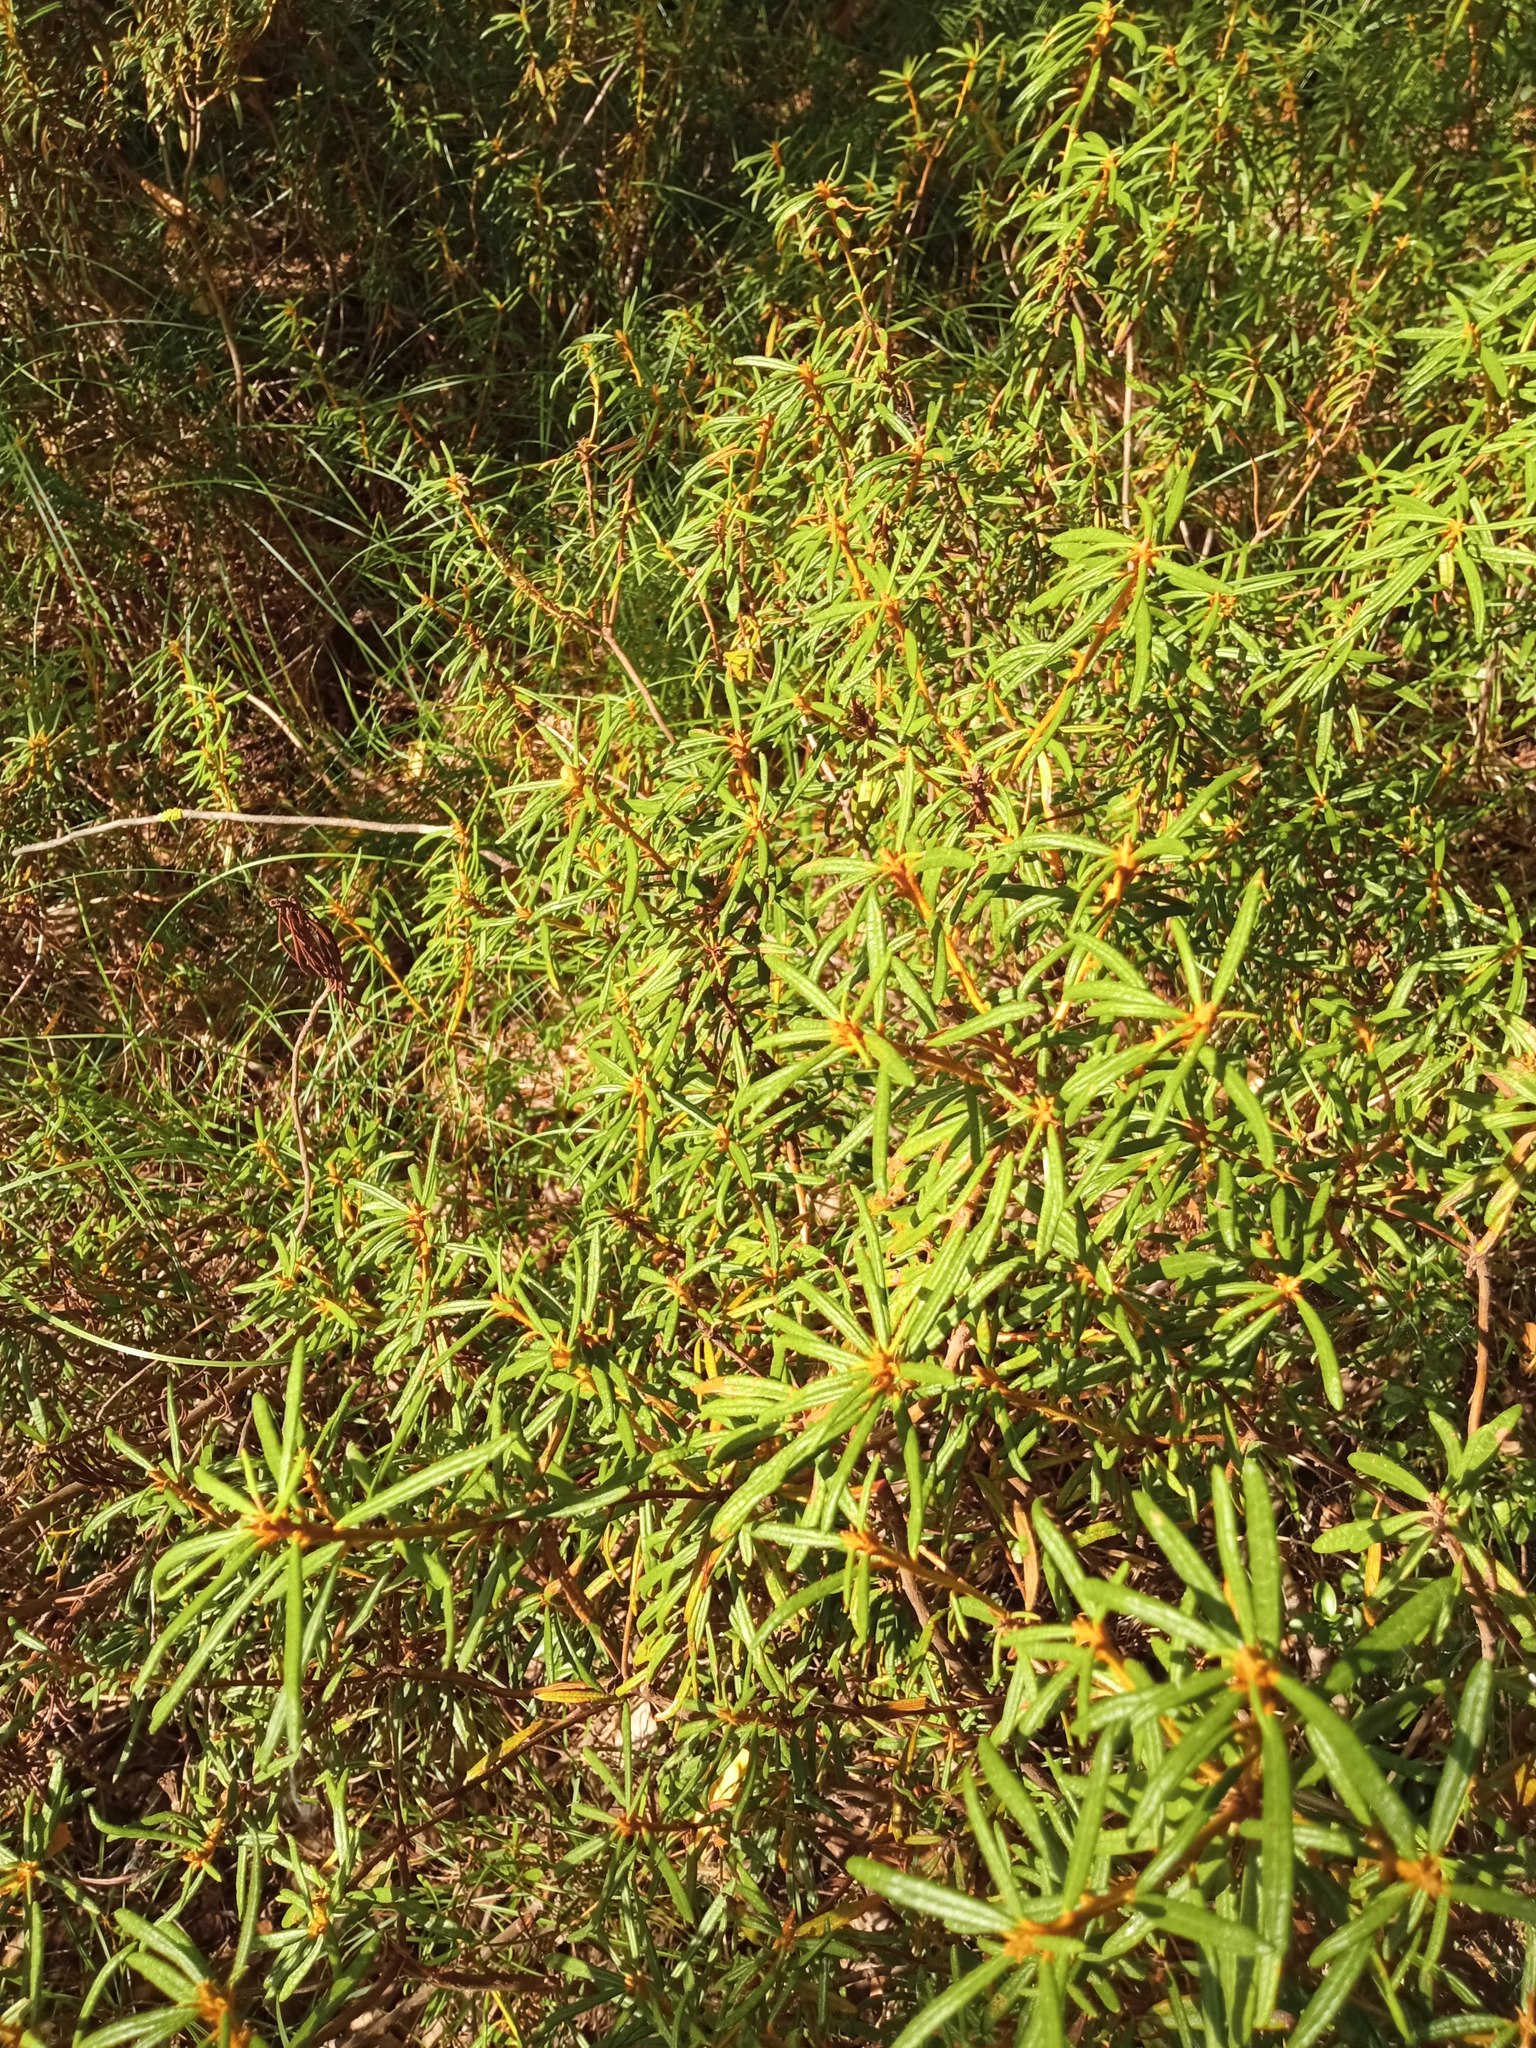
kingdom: Plantae
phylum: Tracheophyta
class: Magnoliopsida
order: Ericales
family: Ericaceae
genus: Rhododendron
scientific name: Rhododendron tomentosum
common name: Marsh labrador tea
